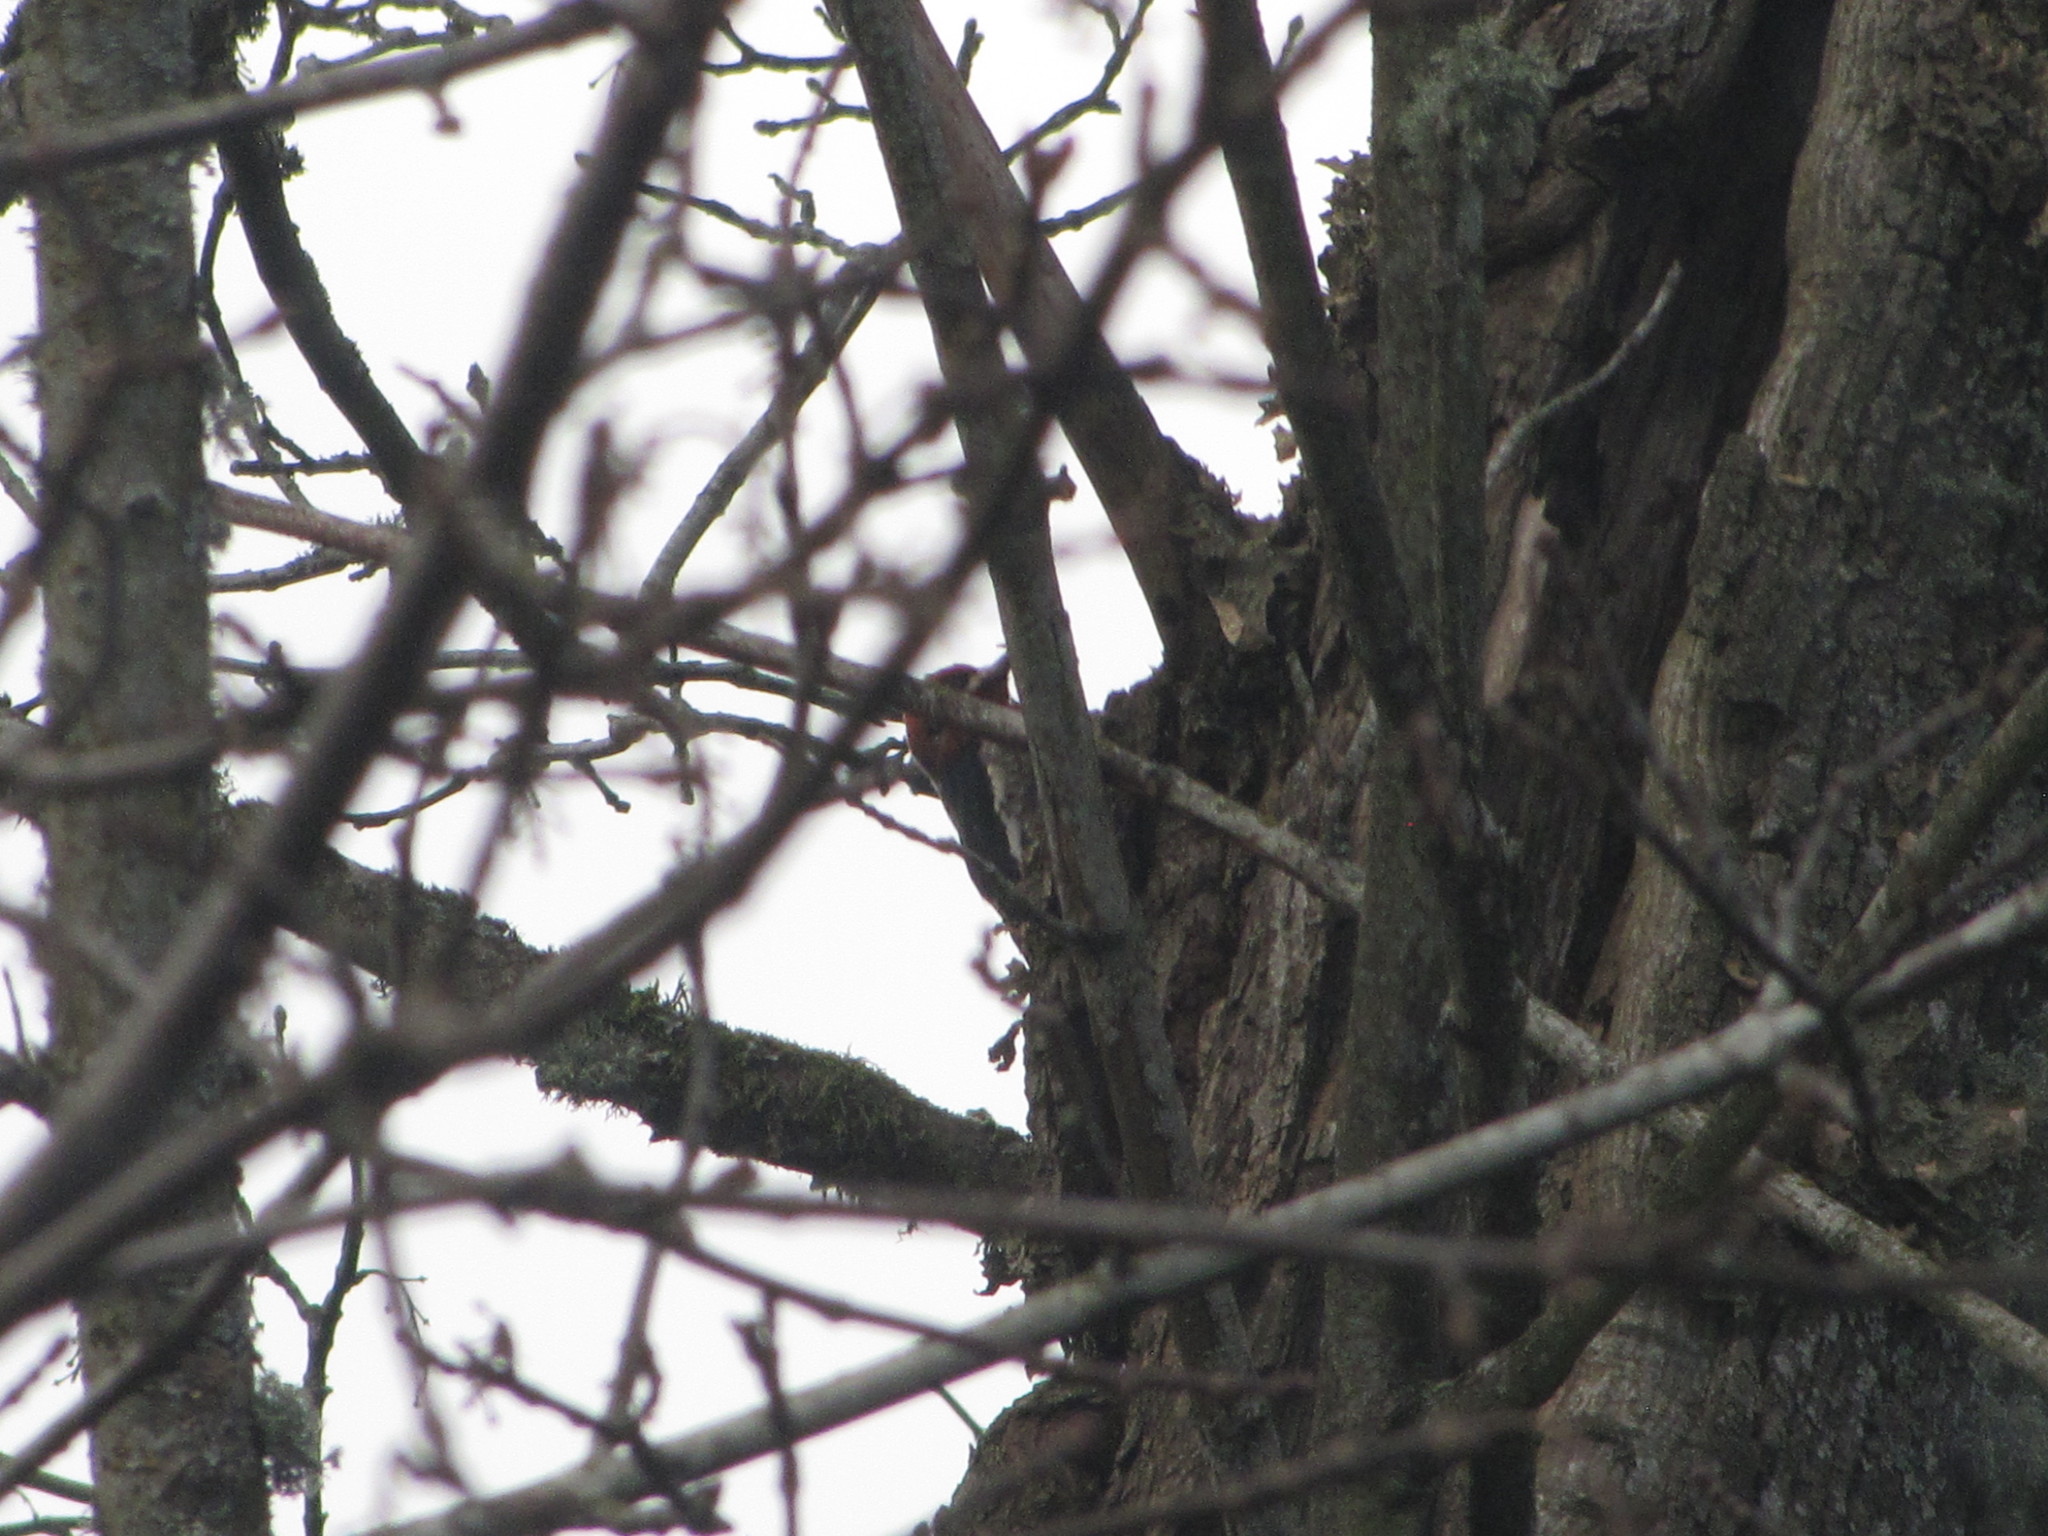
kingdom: Animalia
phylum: Chordata
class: Aves
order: Piciformes
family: Picidae
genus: Sphyrapicus
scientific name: Sphyrapicus ruber
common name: Red-breasted sapsucker
